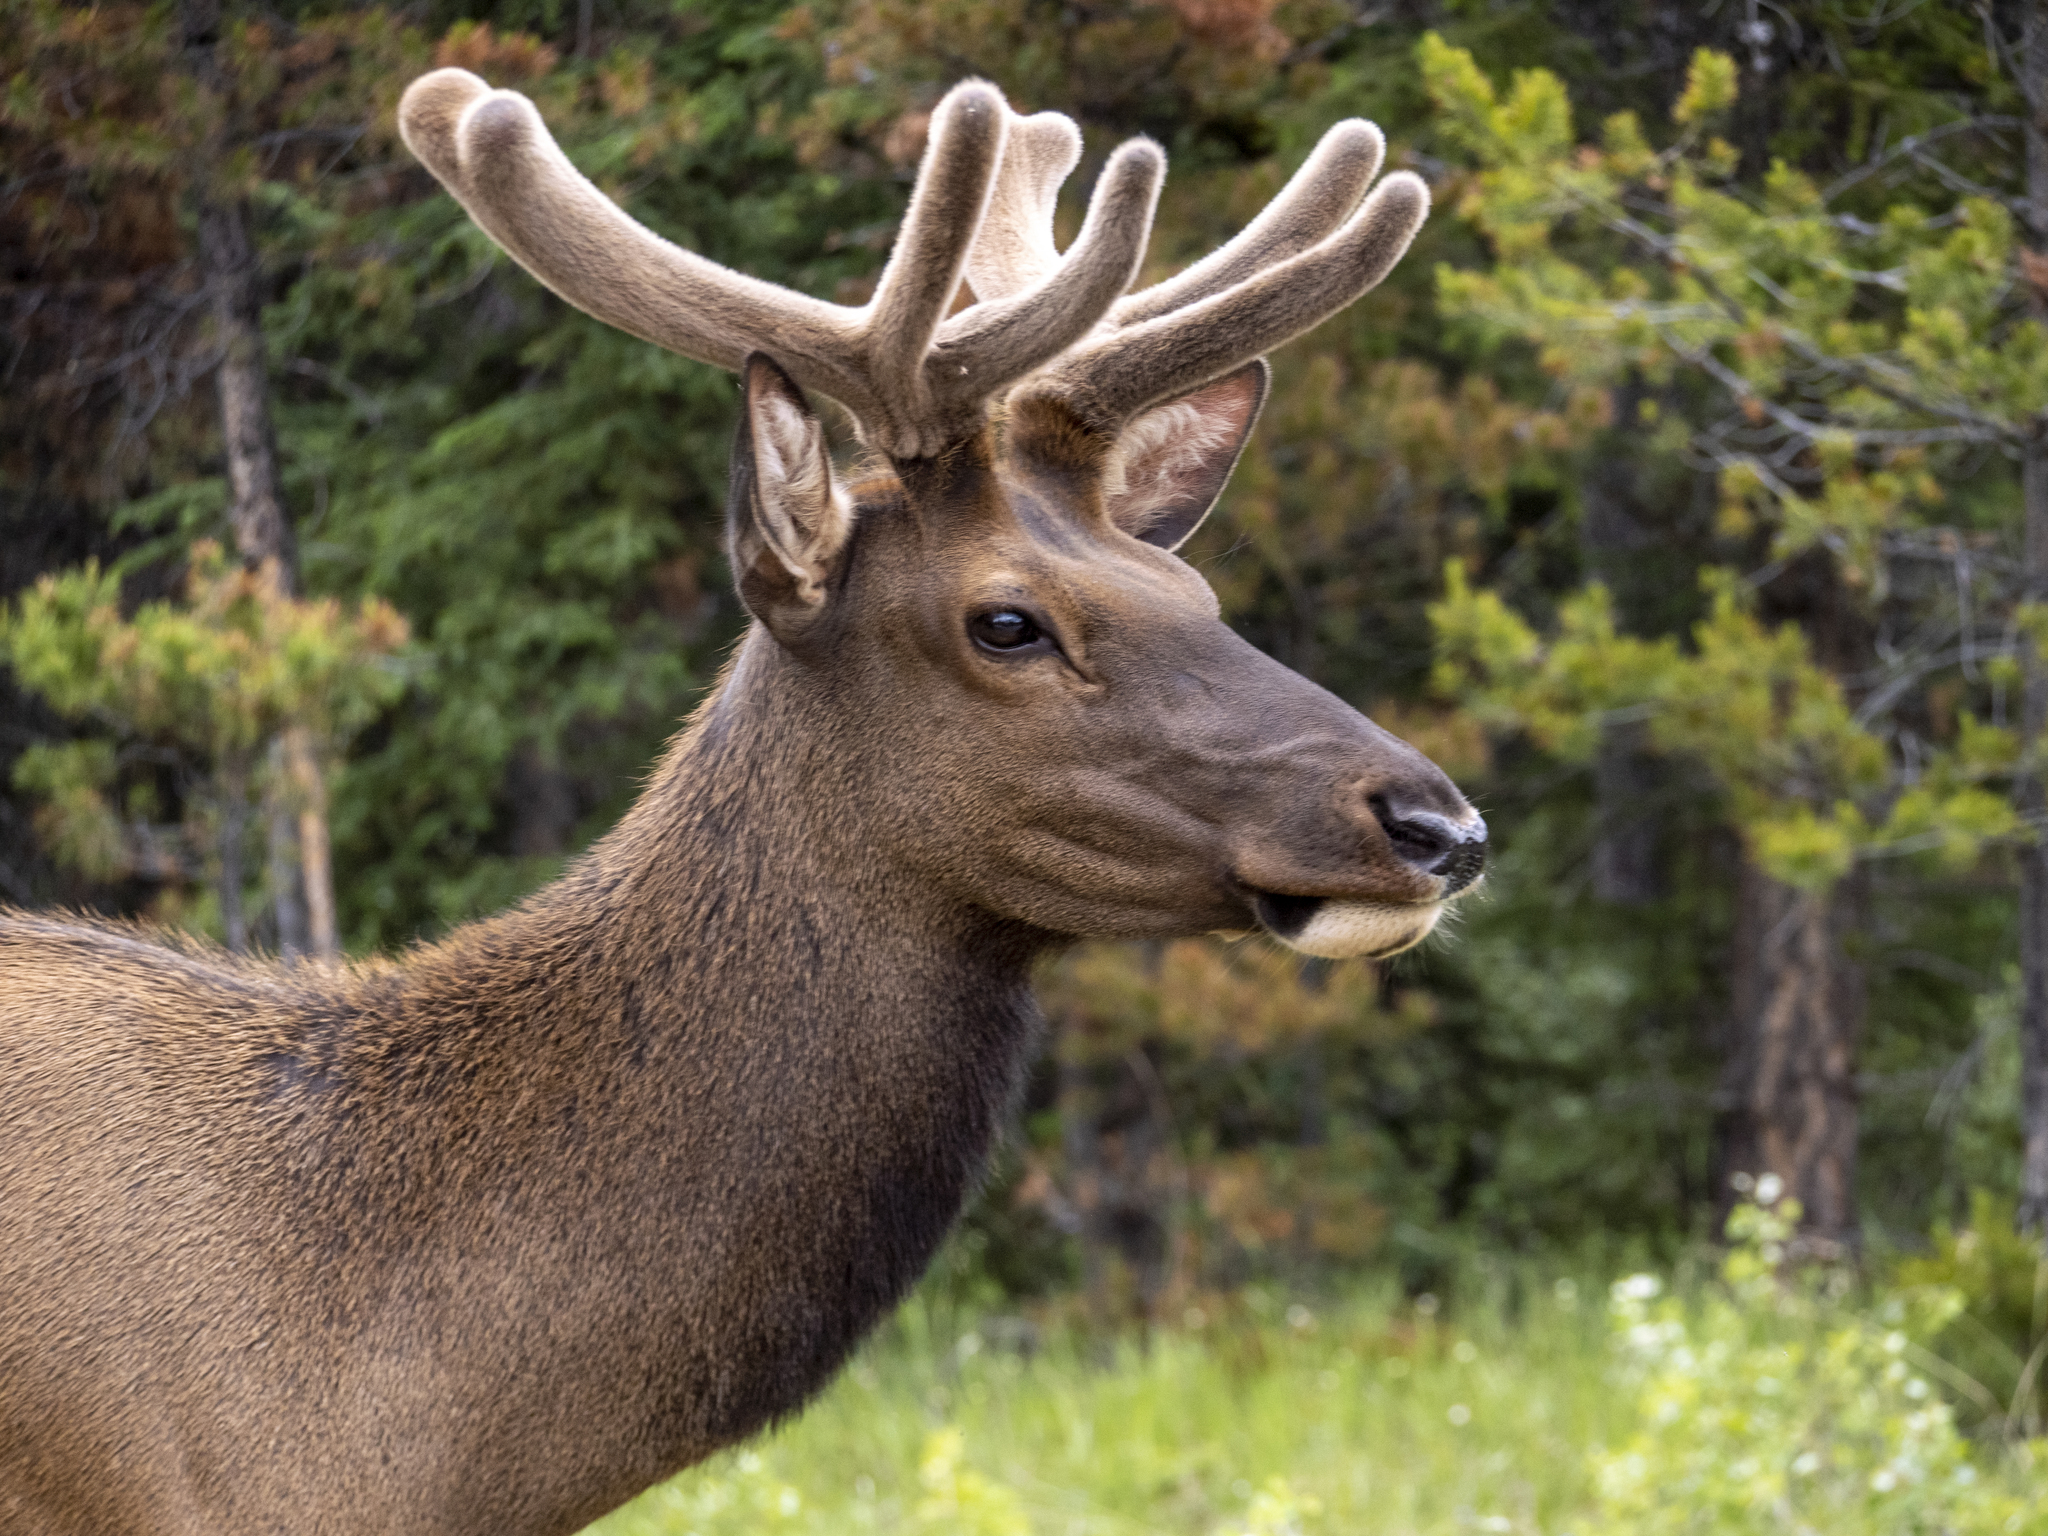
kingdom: Animalia
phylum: Chordata
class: Mammalia
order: Artiodactyla
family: Cervidae
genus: Cervus
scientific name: Cervus elaphus
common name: Red deer
